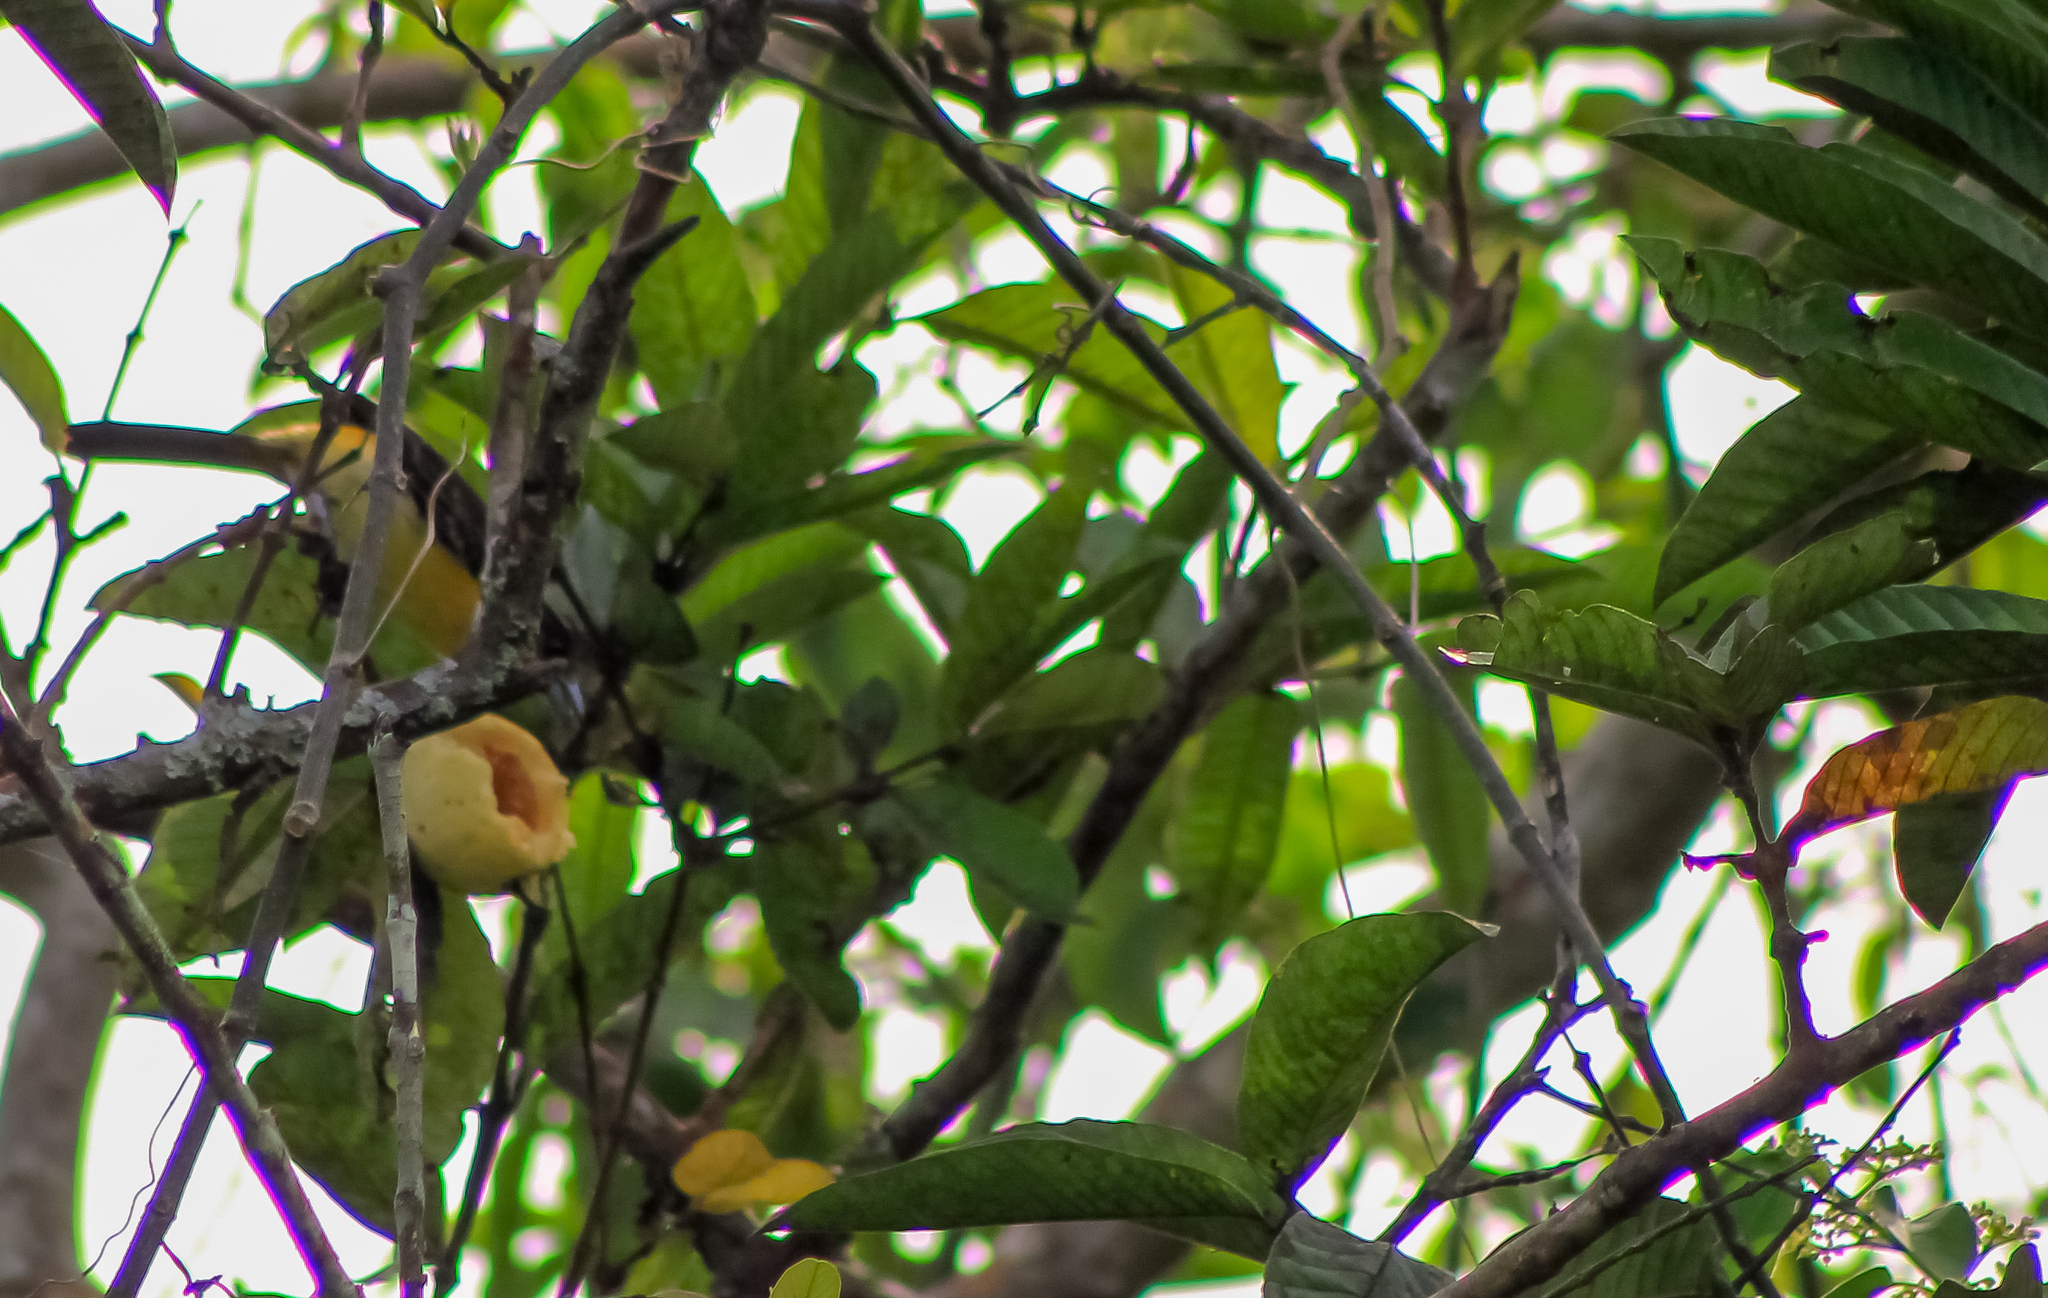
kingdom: Animalia
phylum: Chordata
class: Aves
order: Passeriformes
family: Thraupidae
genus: Ramphocelus
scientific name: Ramphocelus flammigerus
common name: Flame-rumped tanager
